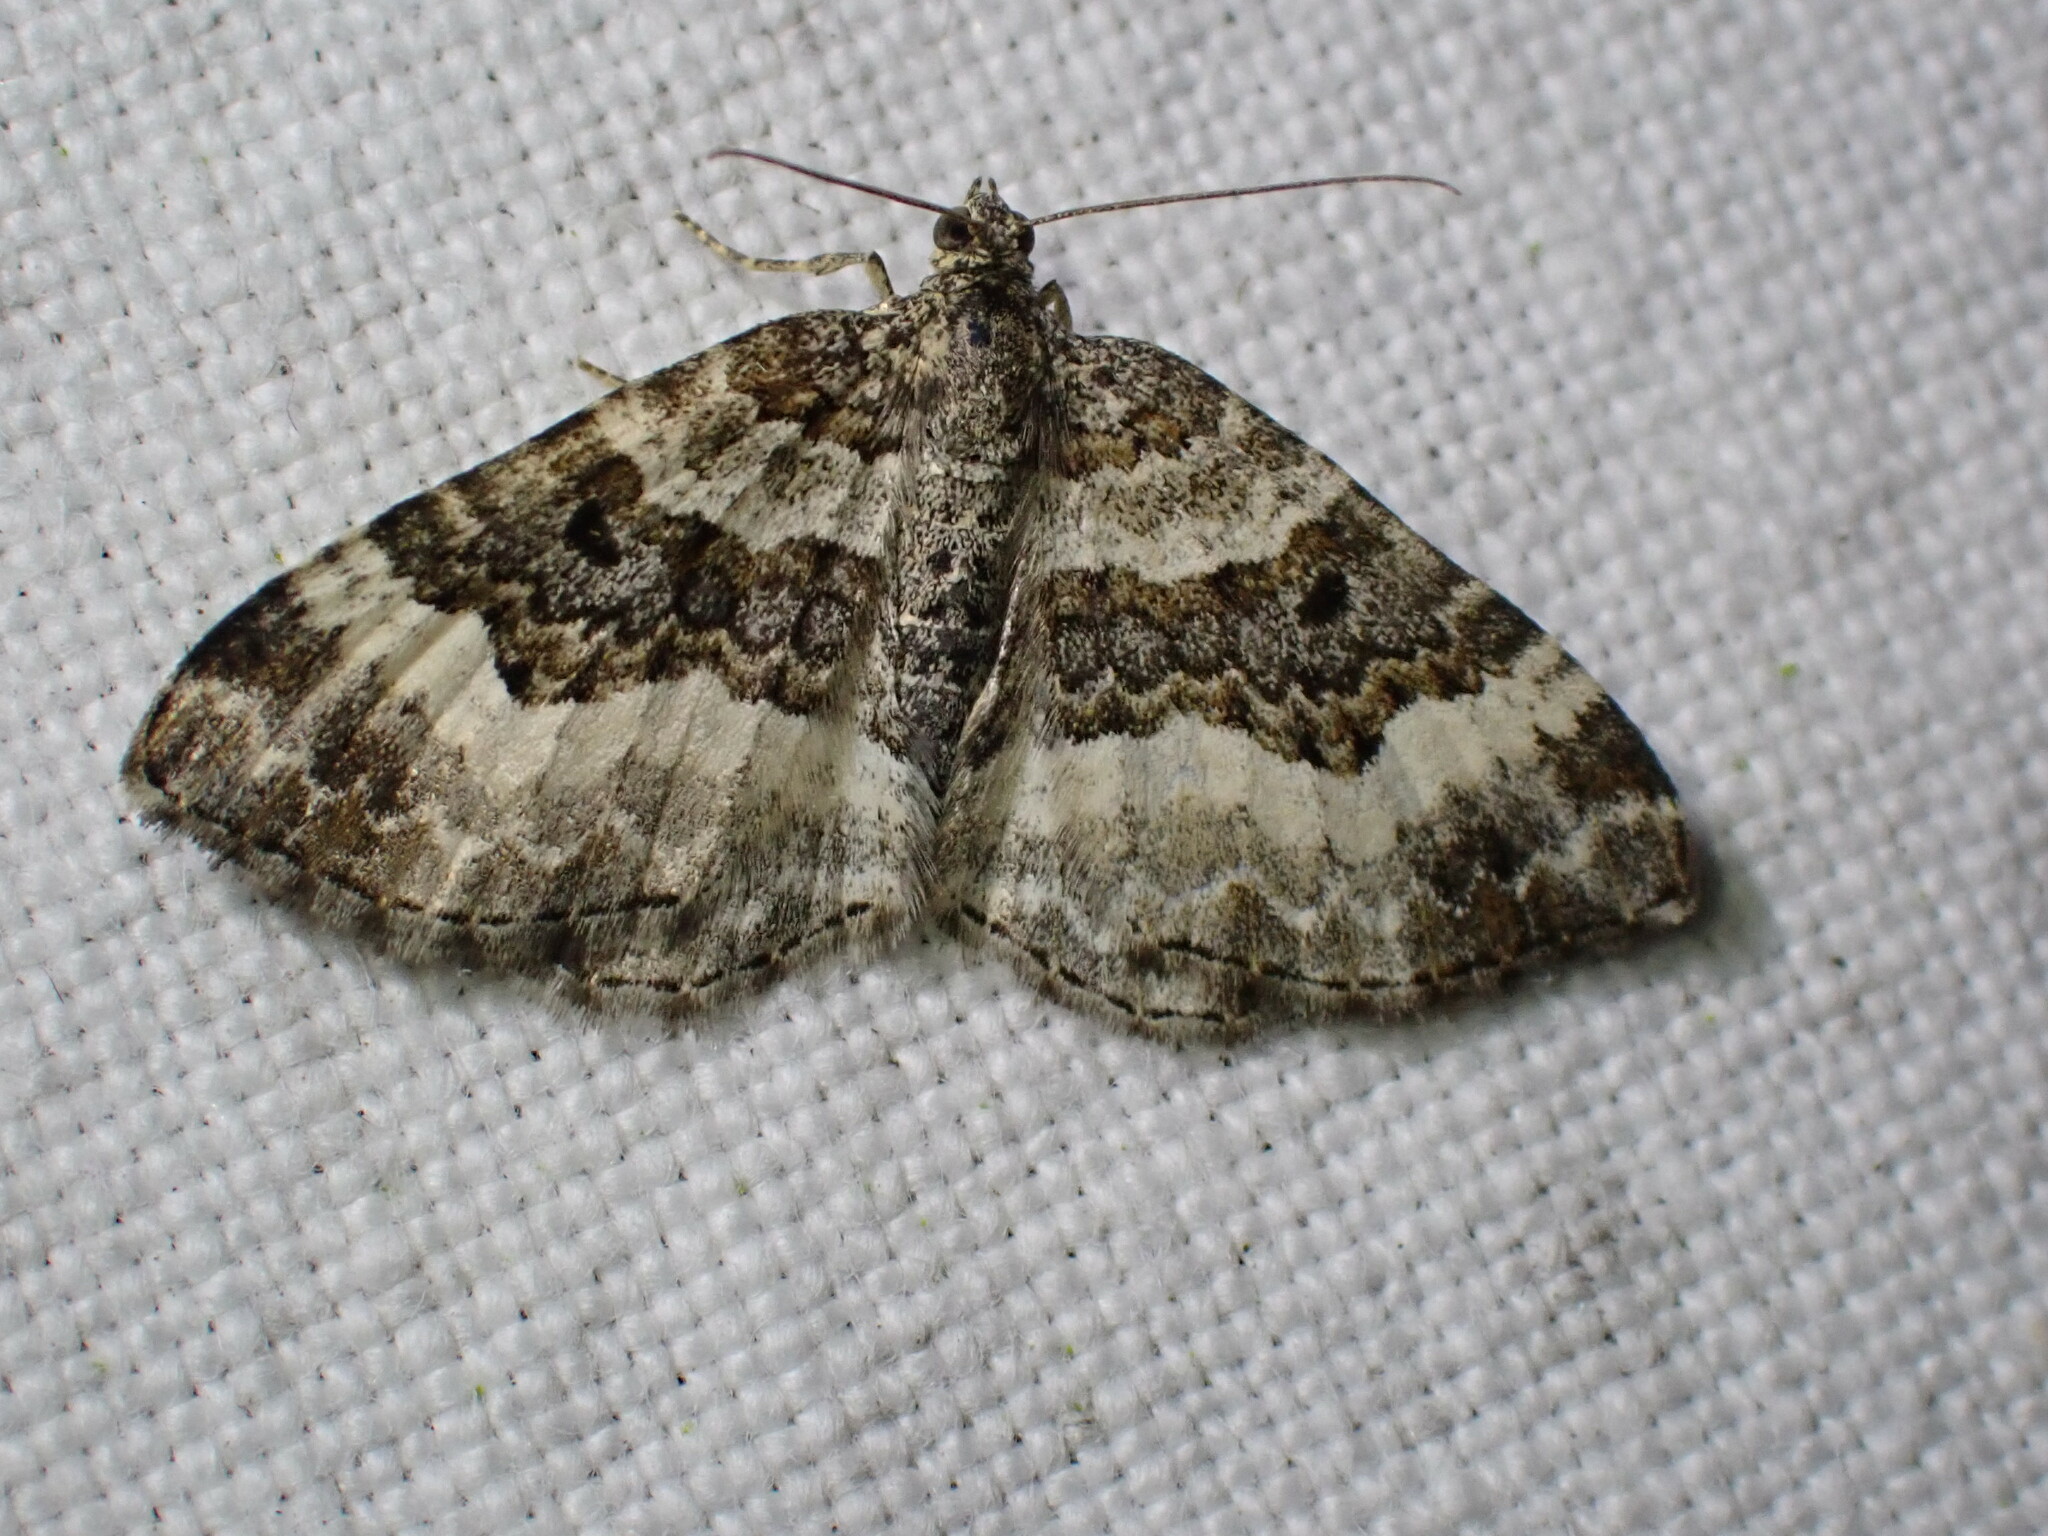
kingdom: Animalia
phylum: Arthropoda
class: Insecta
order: Lepidoptera
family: Geometridae
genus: Epirrhoe
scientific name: Epirrhoe alternata
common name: Common carpet
